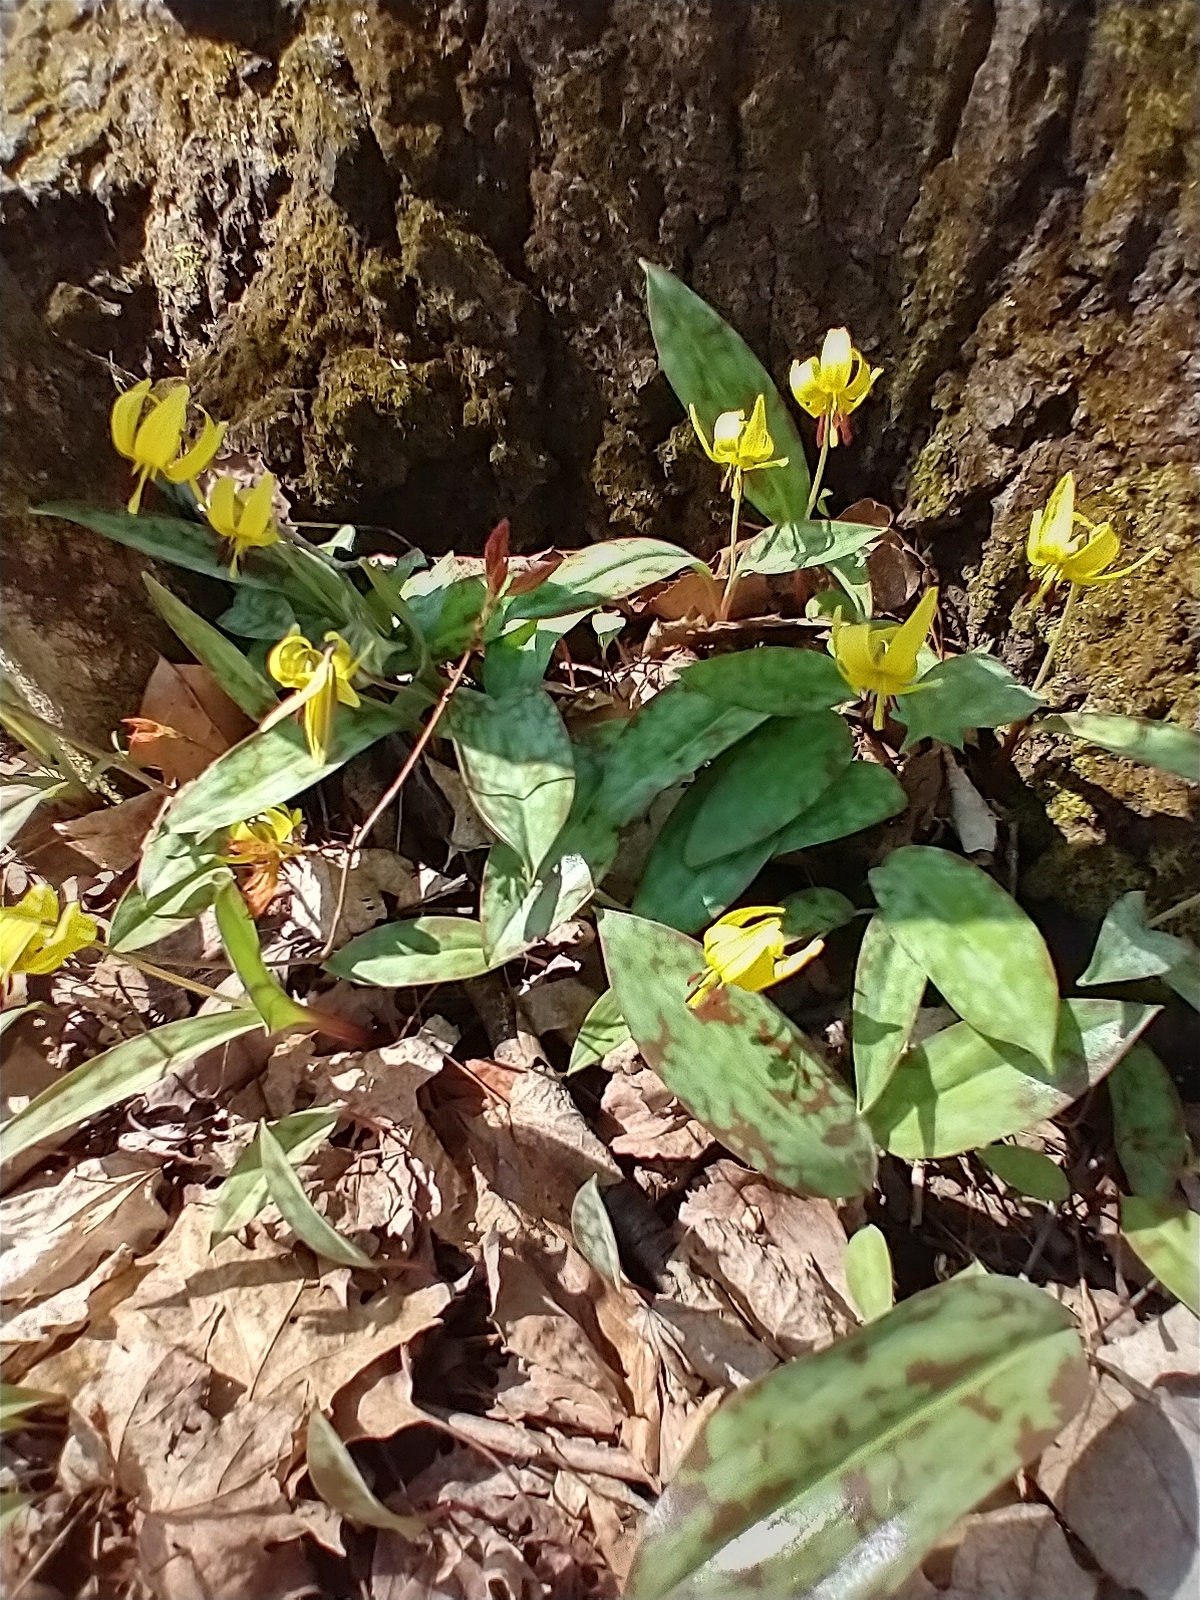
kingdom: Plantae
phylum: Tracheophyta
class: Liliopsida
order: Liliales
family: Liliaceae
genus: Erythronium
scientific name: Erythronium americanum
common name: Yellow adder's-tongue
